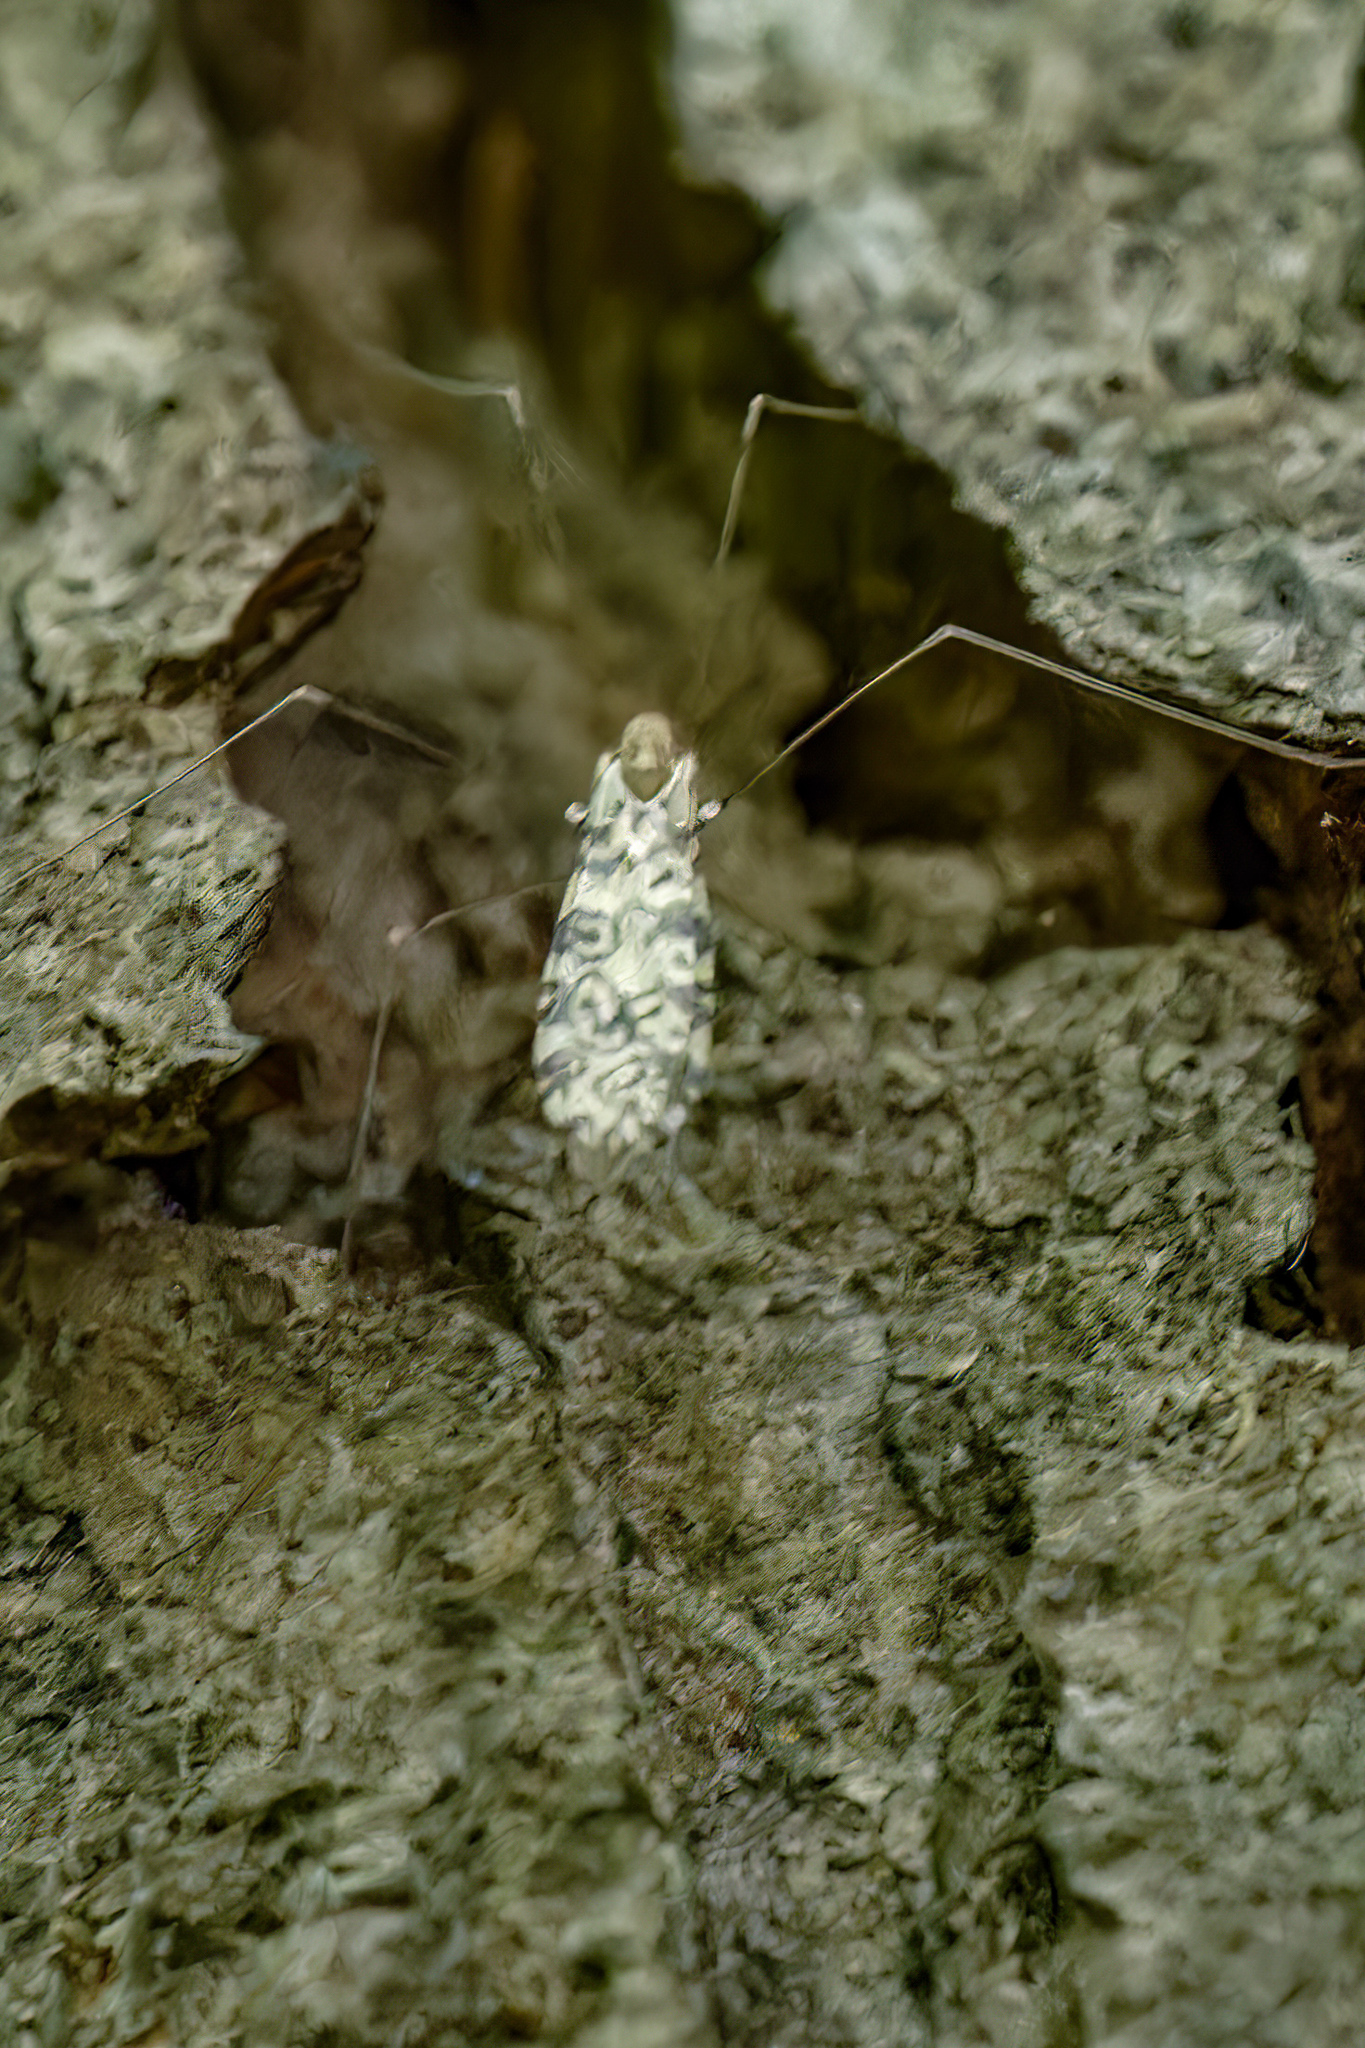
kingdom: Animalia
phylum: Arthropoda
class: Insecta
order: Diptera
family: Limoniidae
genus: Limonia
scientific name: Limonia annulata
